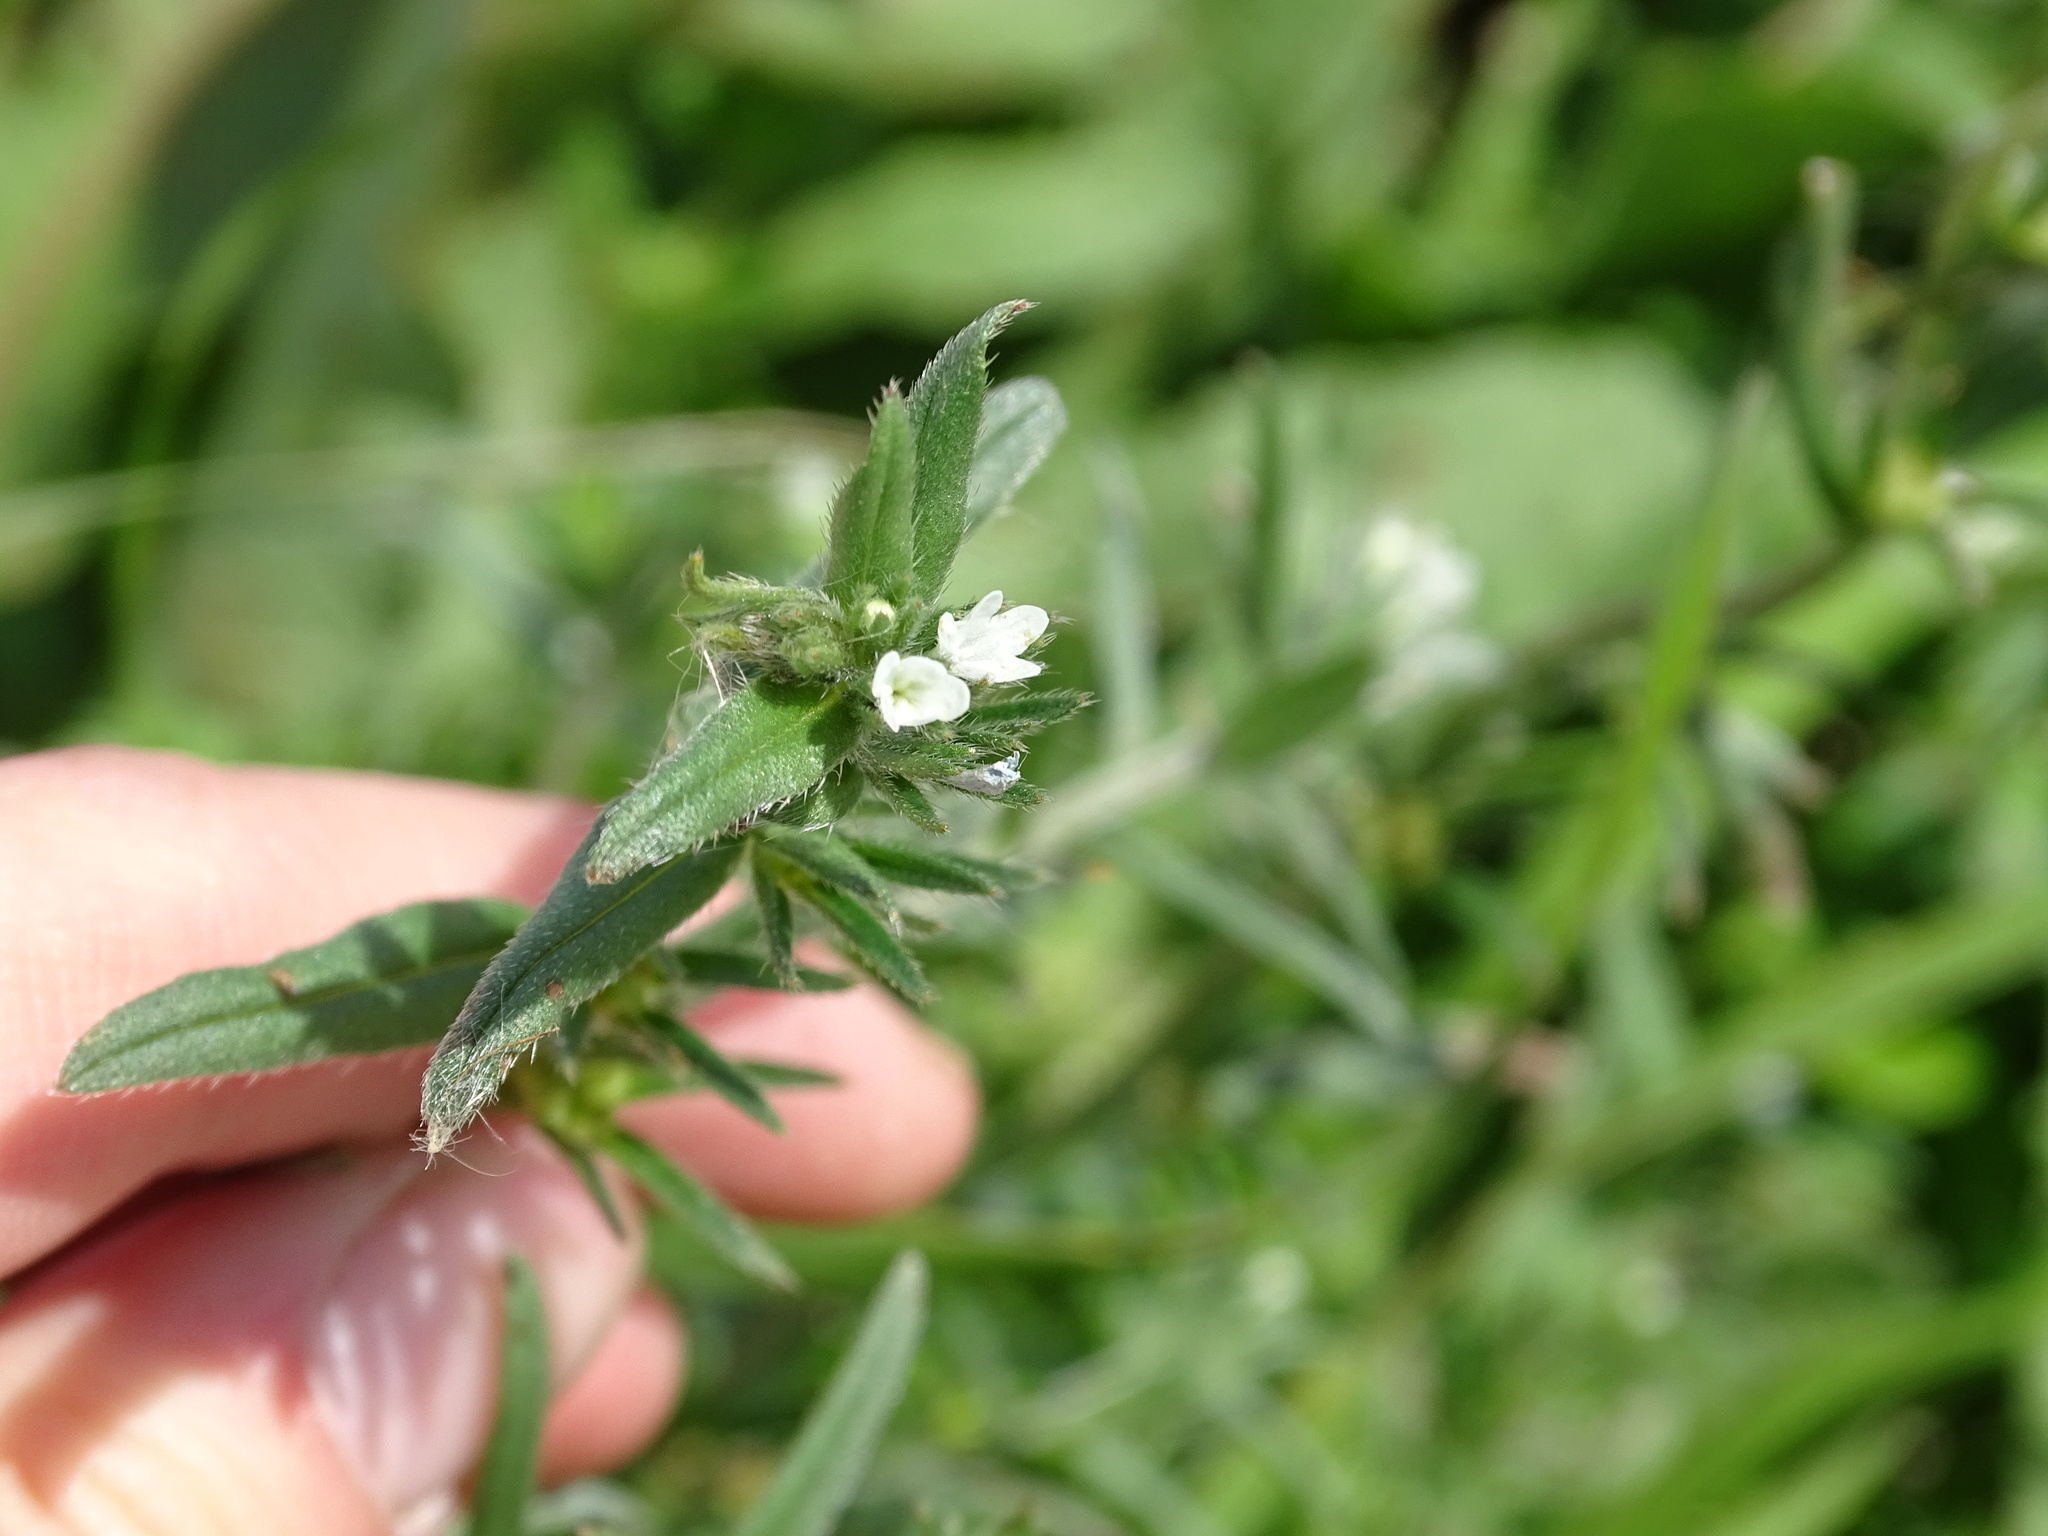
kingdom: Plantae
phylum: Tracheophyta
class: Magnoliopsida
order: Boraginales
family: Boraginaceae
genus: Buglossoides
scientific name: Buglossoides arvensis
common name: Corn gromwell
